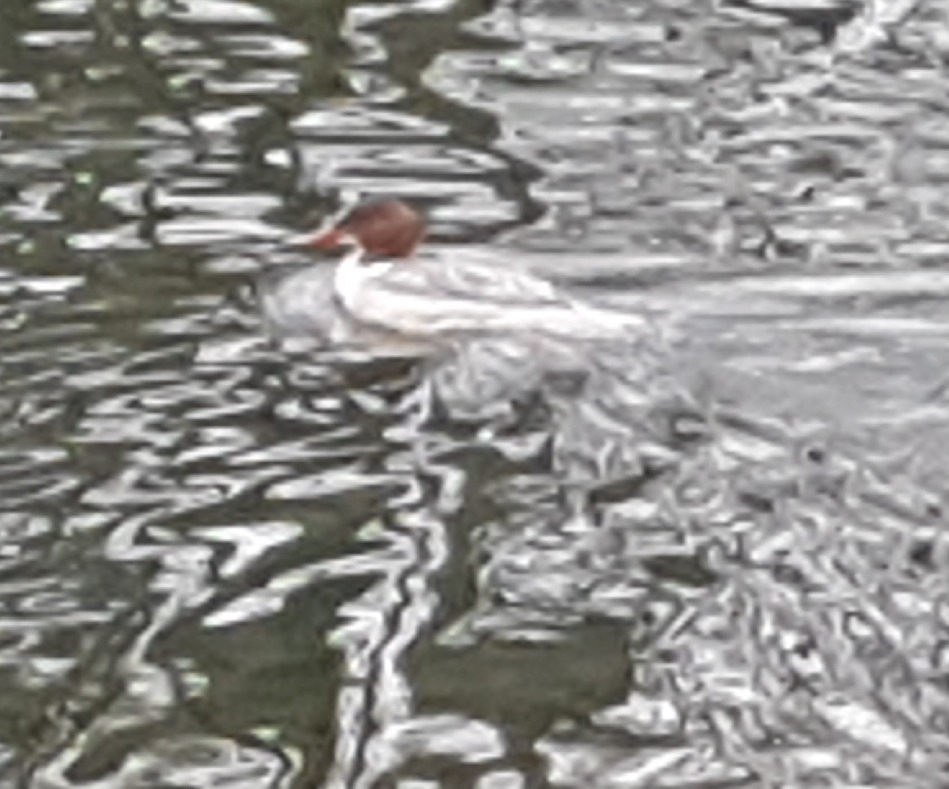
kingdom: Animalia
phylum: Chordata
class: Aves
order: Anseriformes
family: Anatidae
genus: Mergus
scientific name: Mergus merganser
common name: Common merganser
